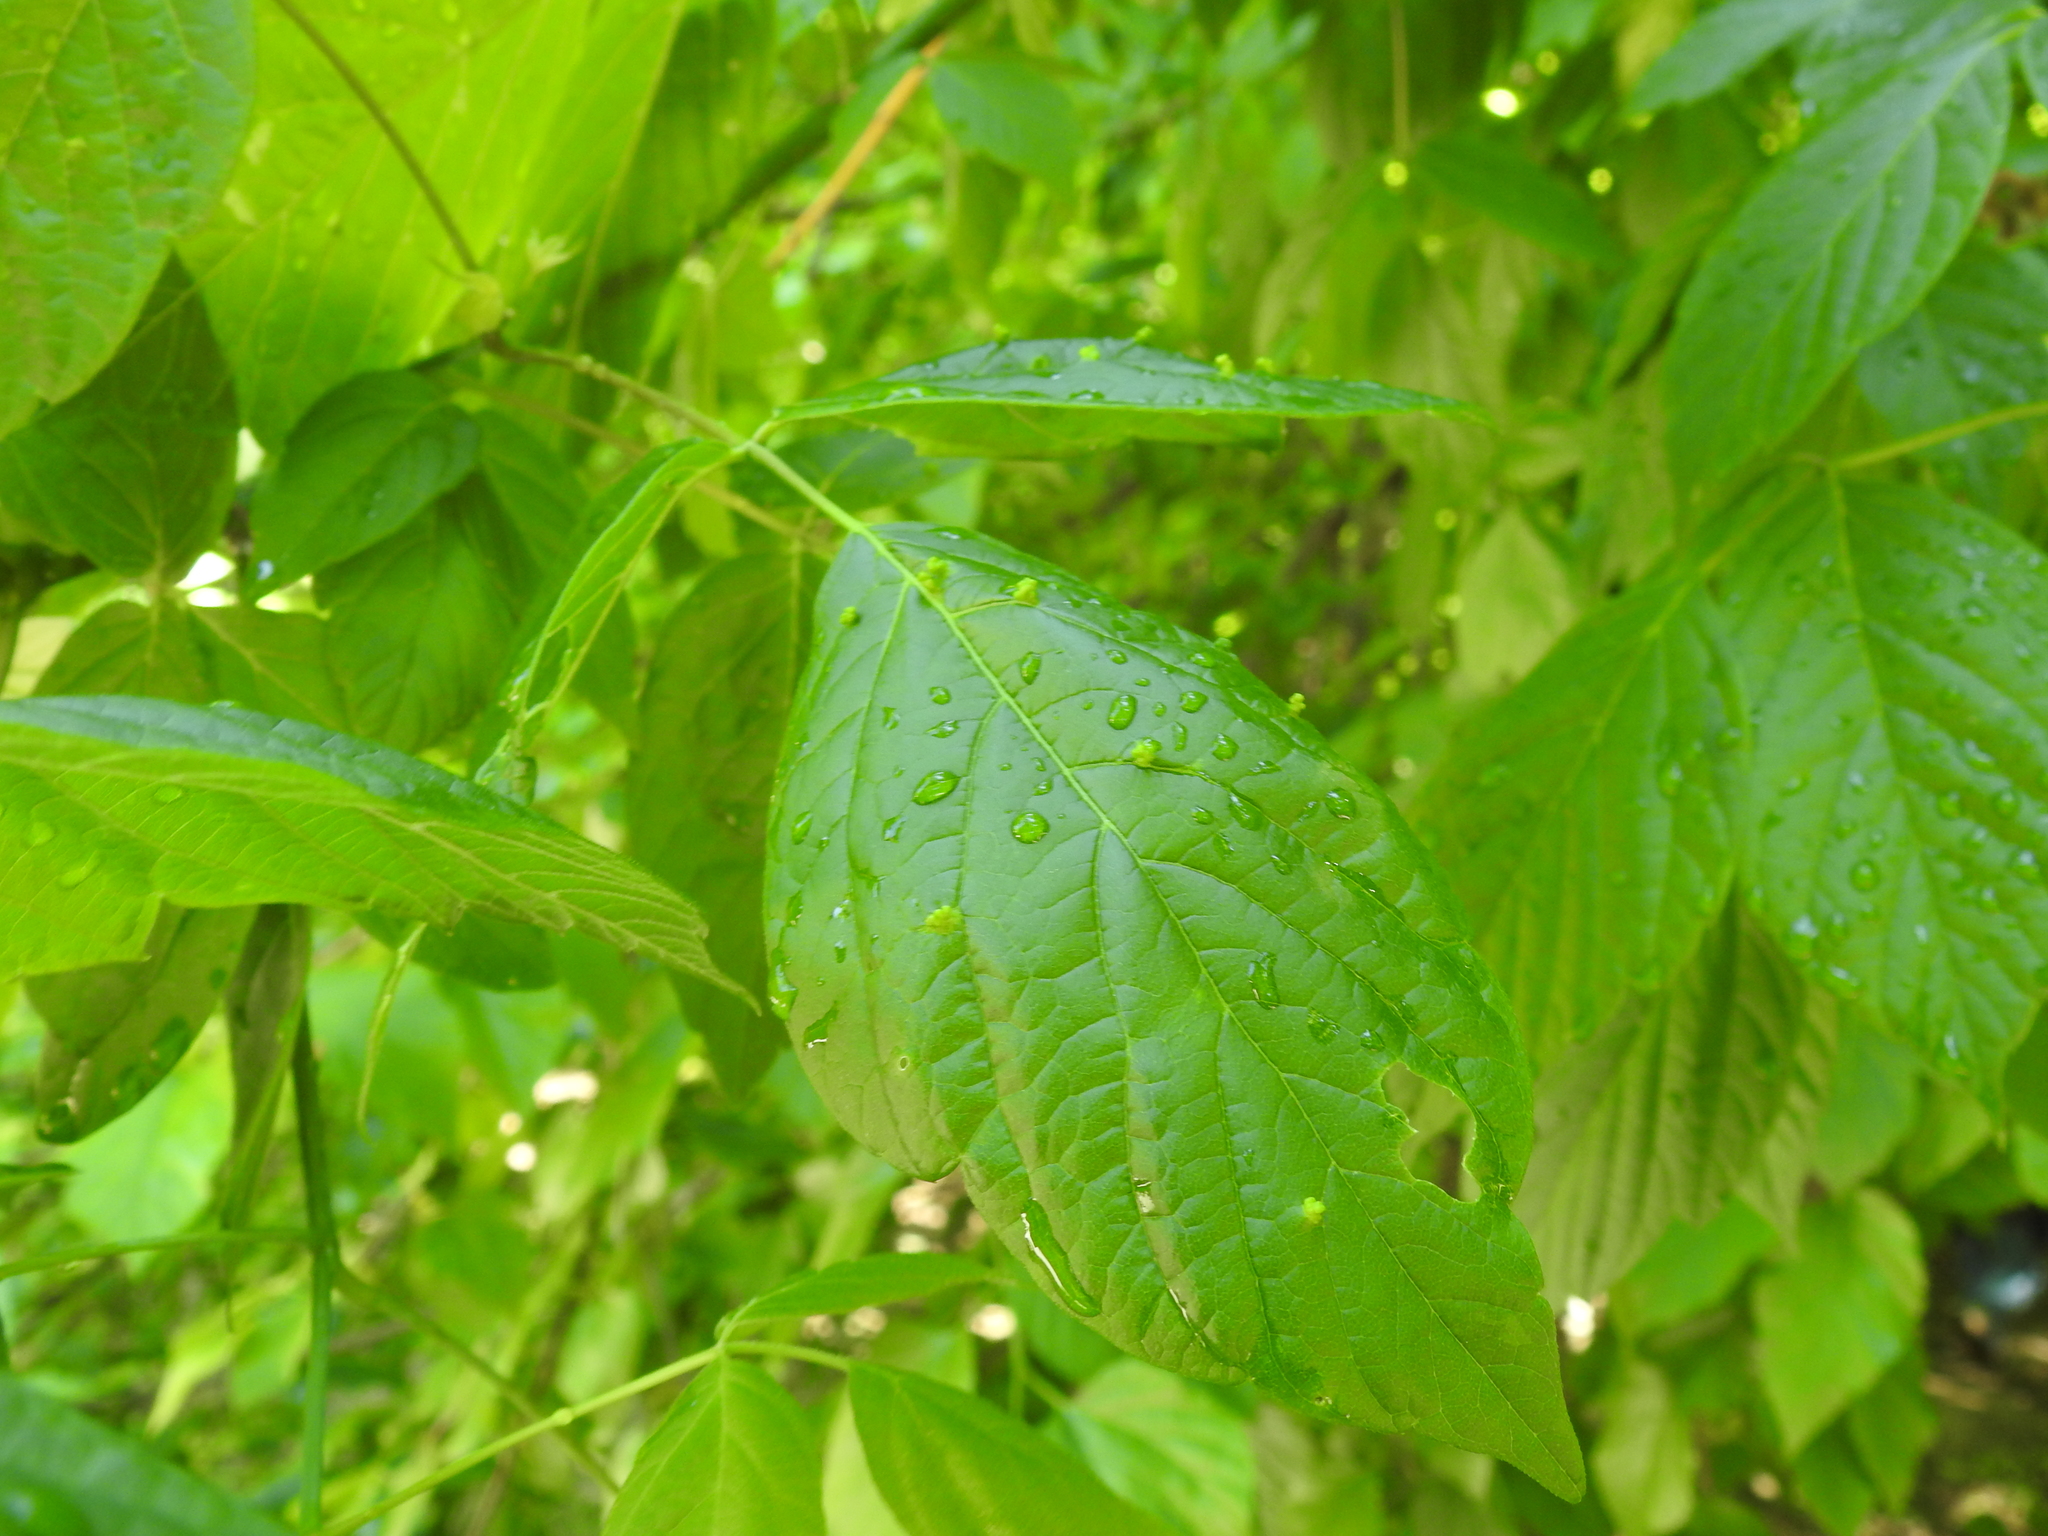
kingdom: Animalia
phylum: Arthropoda
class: Arachnida
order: Trombidiformes
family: Eriophyidae
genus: Aceria
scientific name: Aceria
